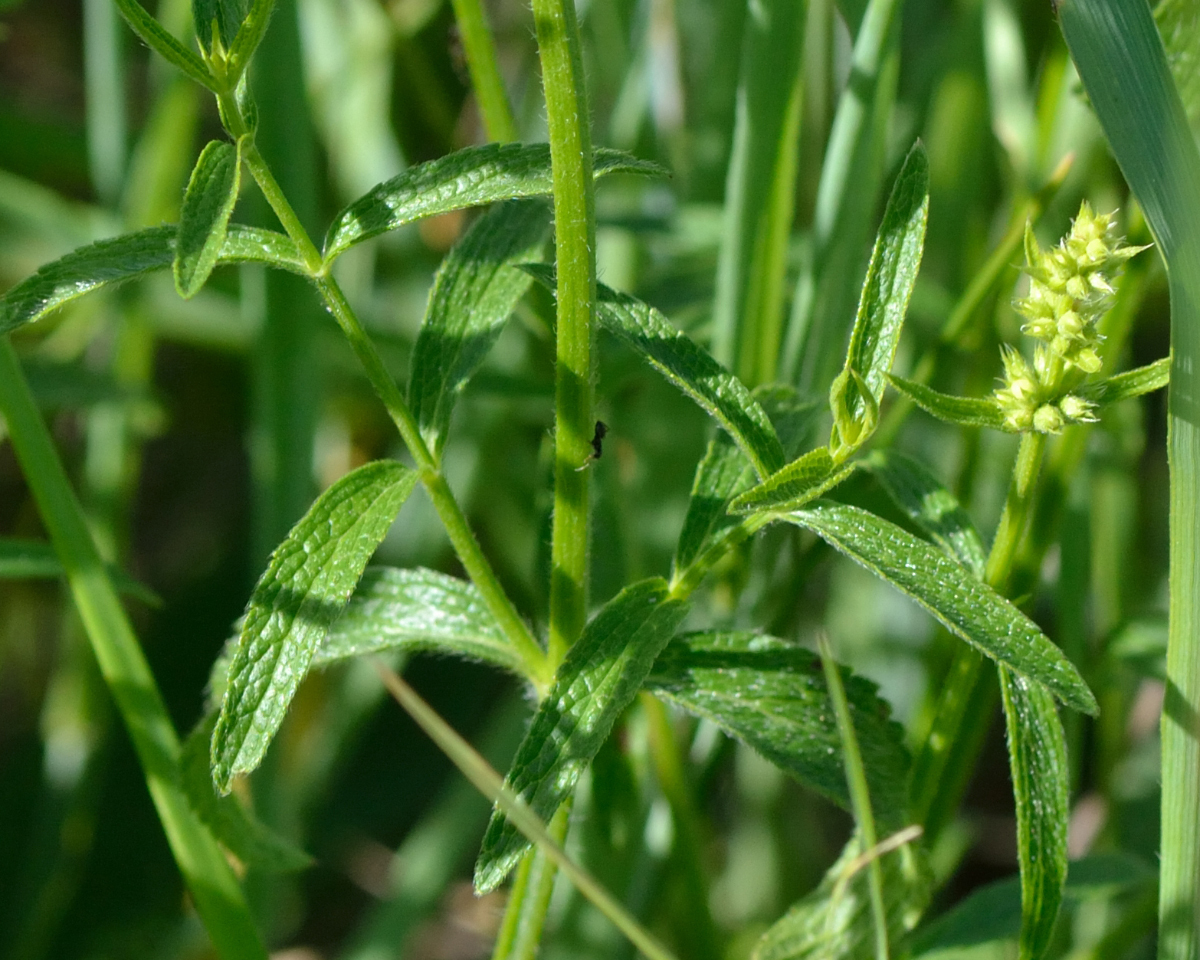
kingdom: Plantae
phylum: Tracheophyta
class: Magnoliopsida
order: Lamiales
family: Lamiaceae
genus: Stachys
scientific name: Stachys recta
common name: Perennial yellow-woundwort
